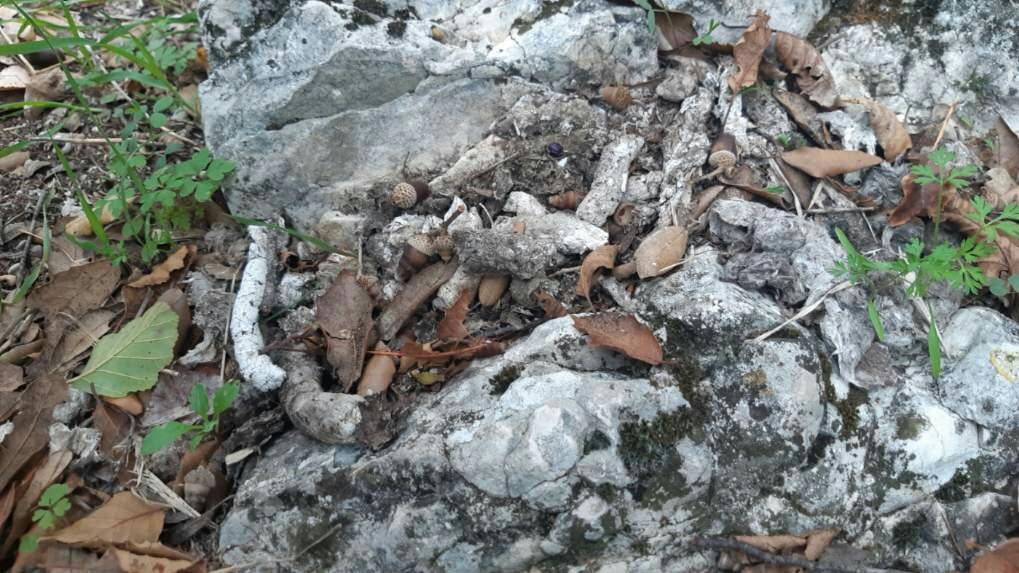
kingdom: Animalia
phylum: Chordata
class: Mammalia
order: Carnivora
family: Viverridae
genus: Genetta
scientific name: Genetta genetta
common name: Common genet
